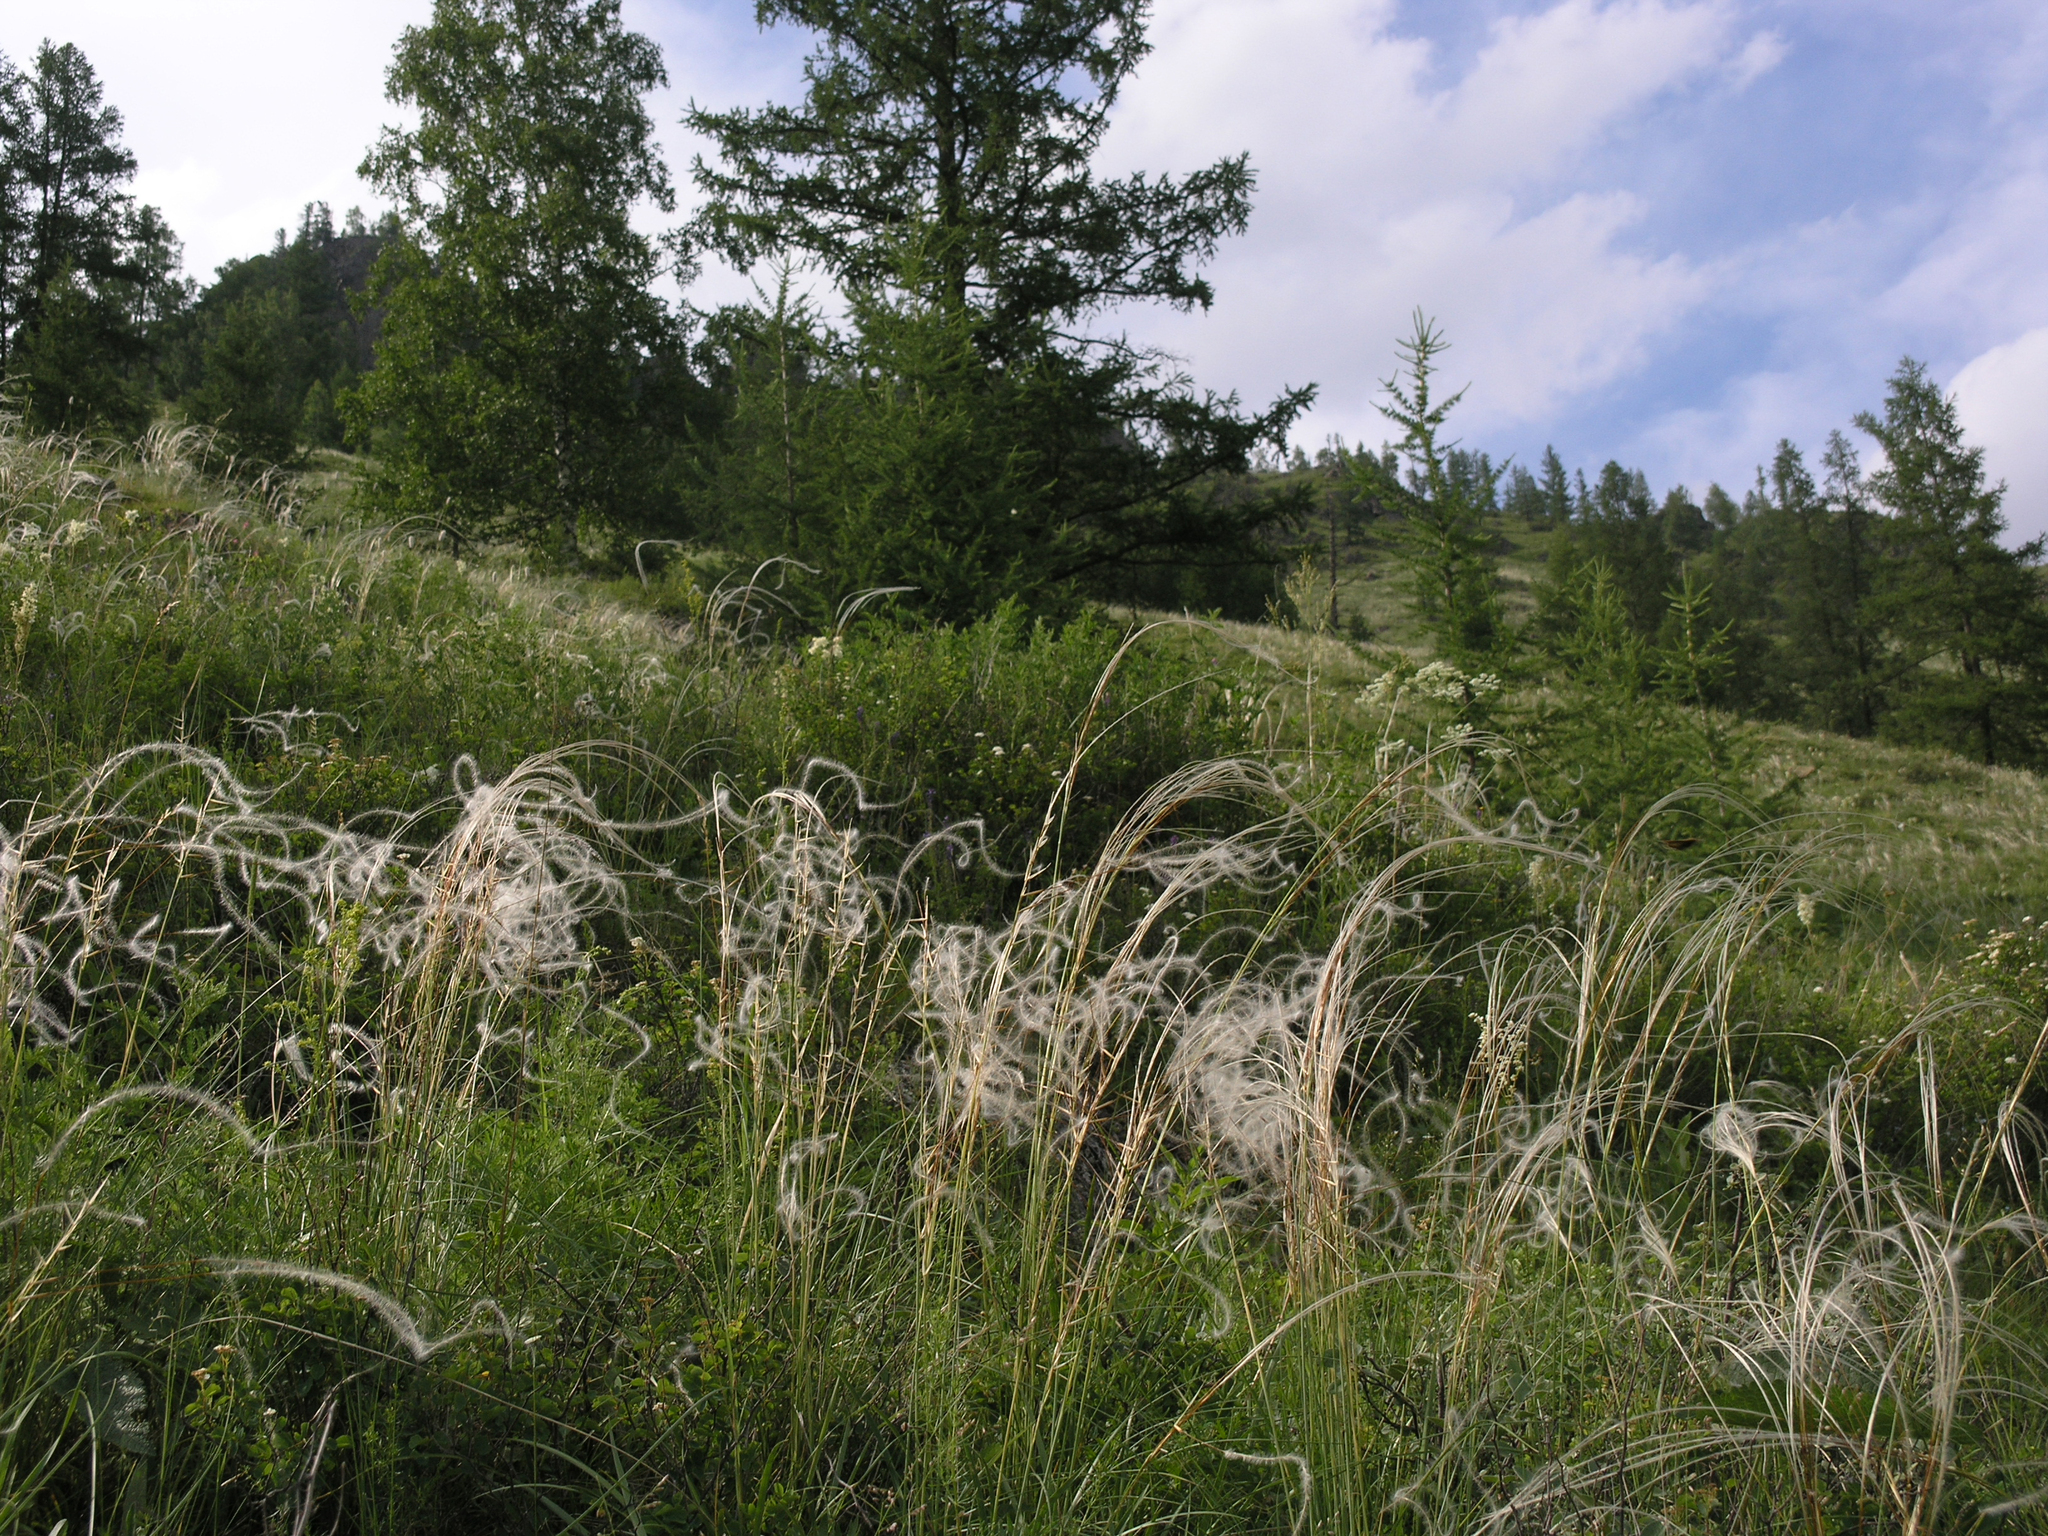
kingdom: Plantae
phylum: Tracheophyta
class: Pinopsida
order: Pinales
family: Pinaceae
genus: Larix
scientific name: Larix sibirica
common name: Siberian larch
